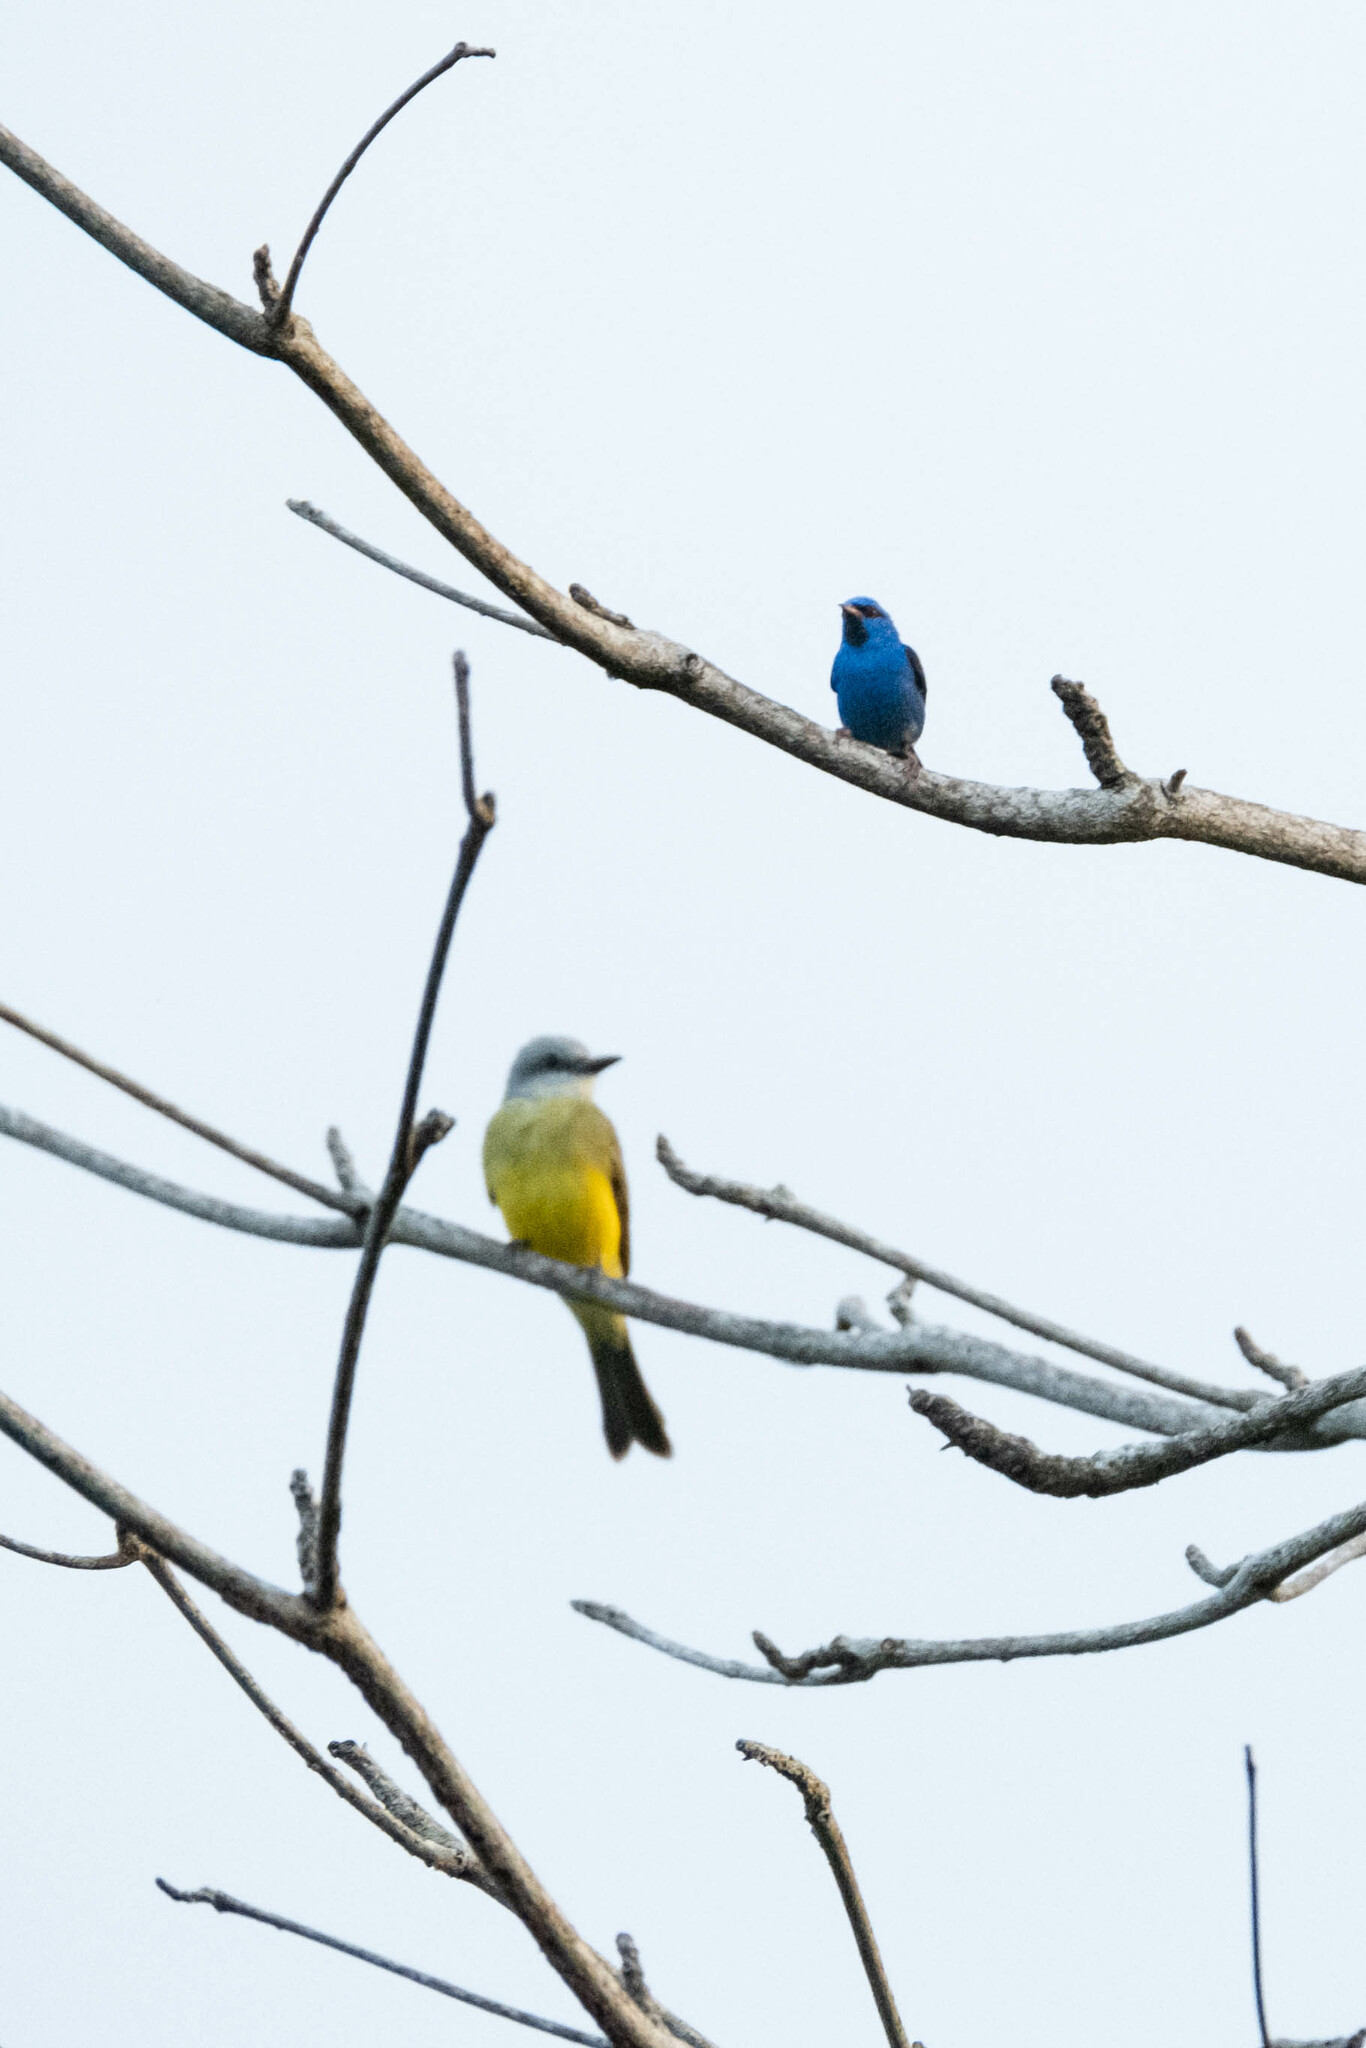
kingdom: Animalia
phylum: Chordata
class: Aves
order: Passeriformes
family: Tyrannidae
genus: Tyrannus
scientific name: Tyrannus melancholicus
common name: Tropical kingbird
